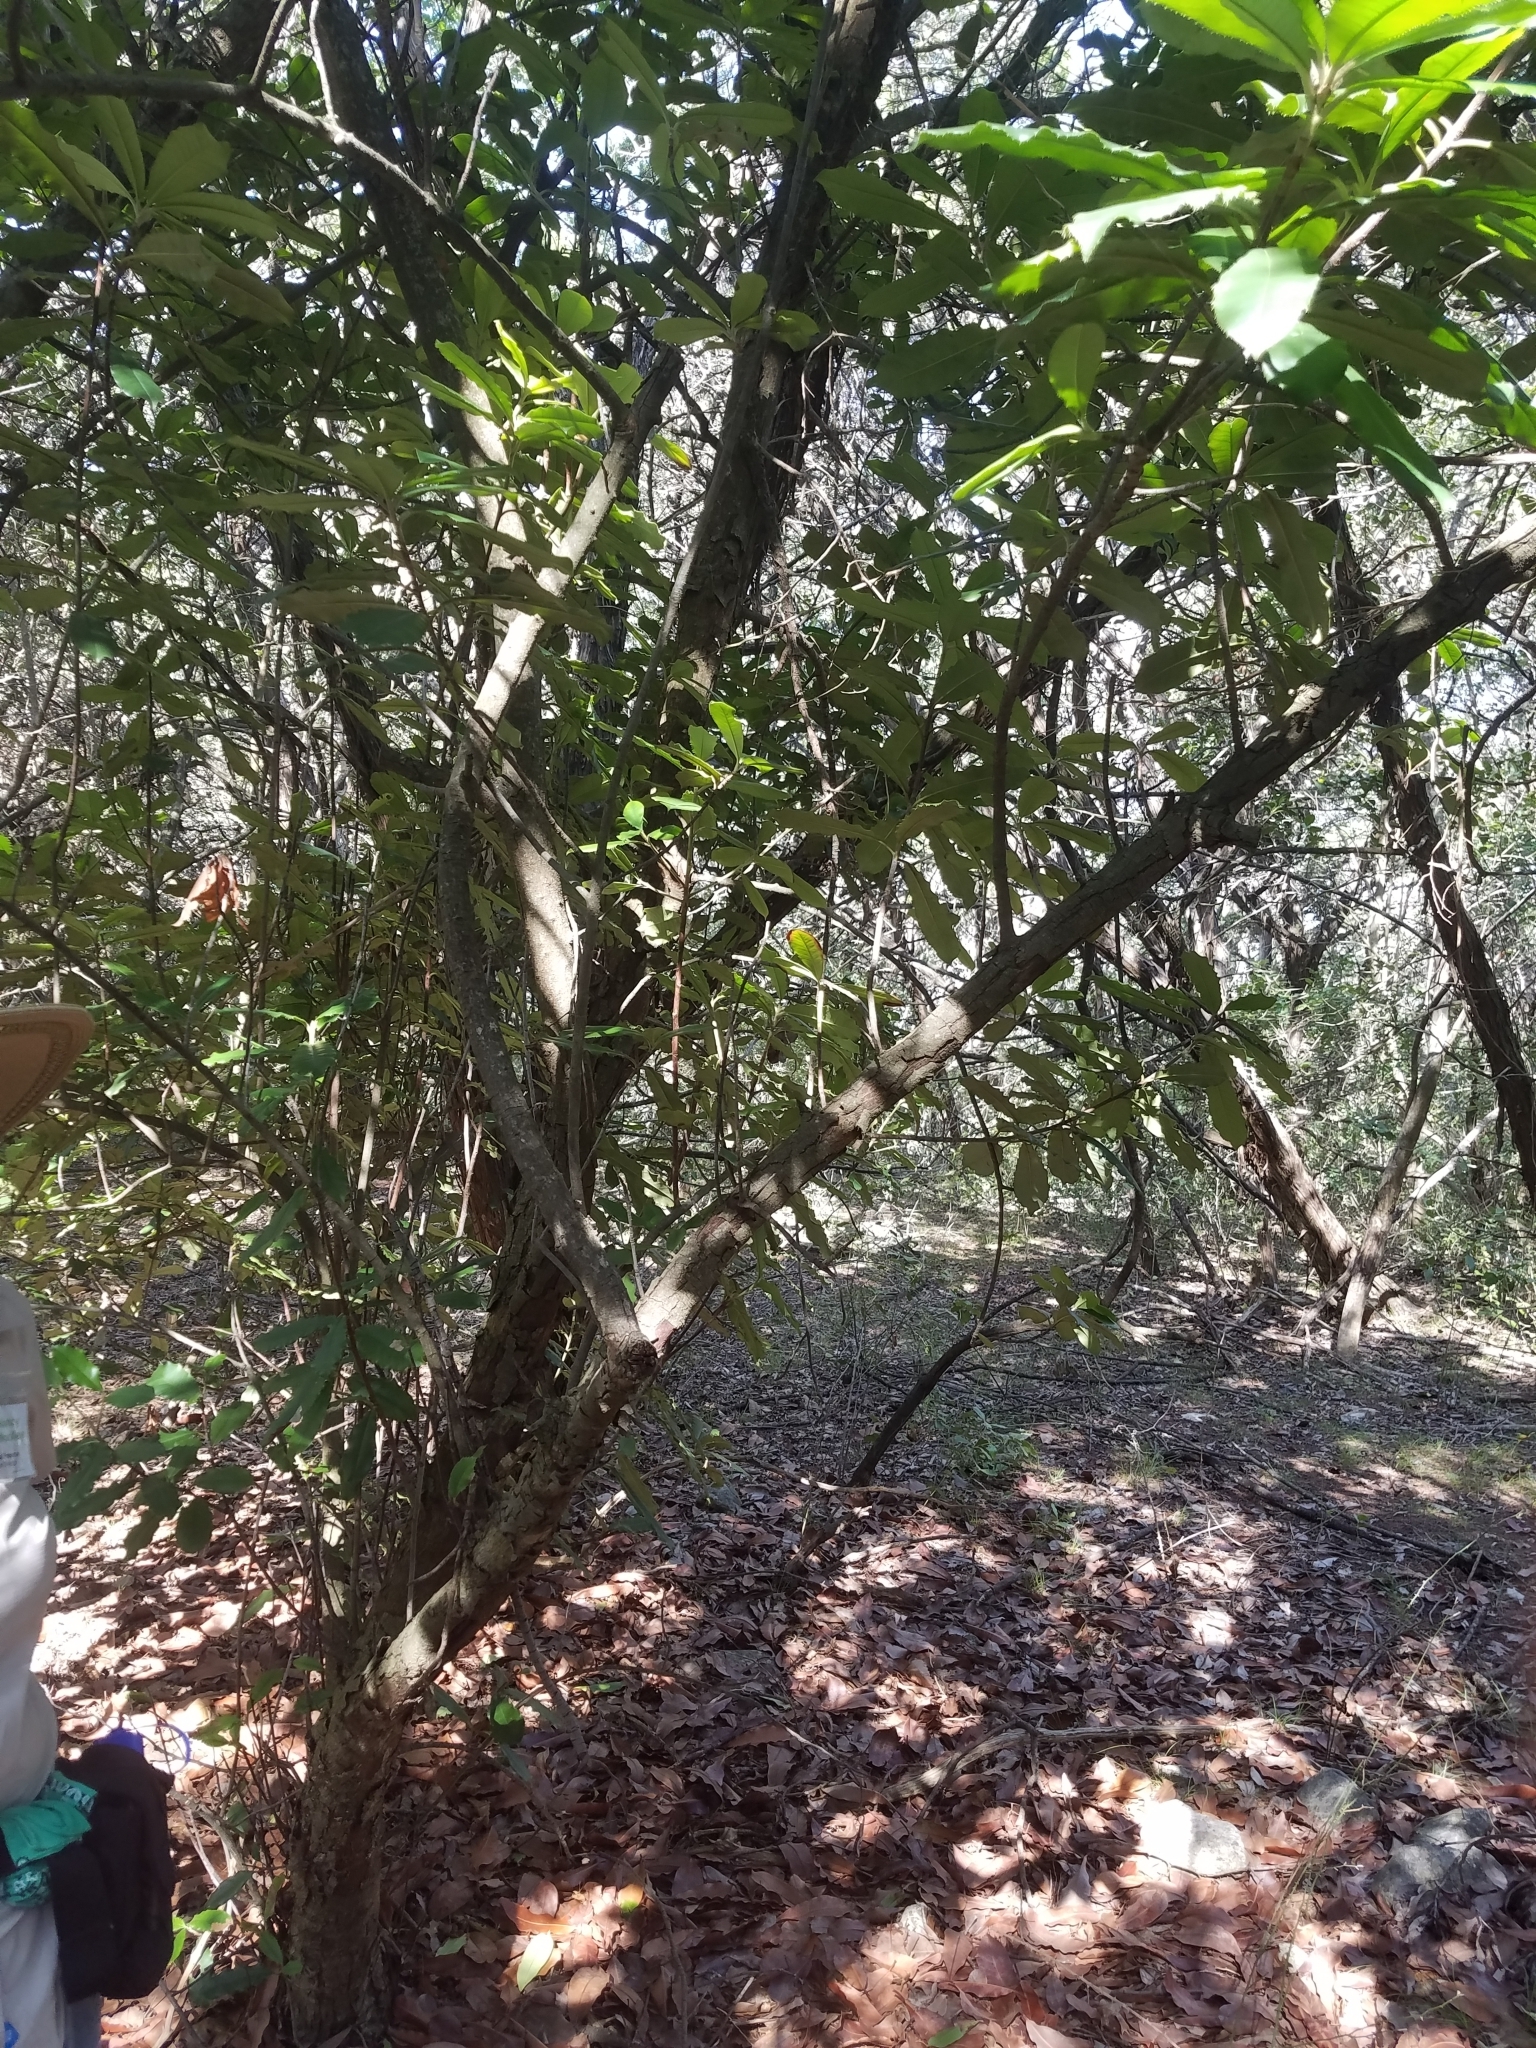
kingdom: Plantae
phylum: Tracheophyta
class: Magnoliopsida
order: Rosales
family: Rosaceae
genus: Photinia
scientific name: Photinia serratifolia
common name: Taiwanese photinia
